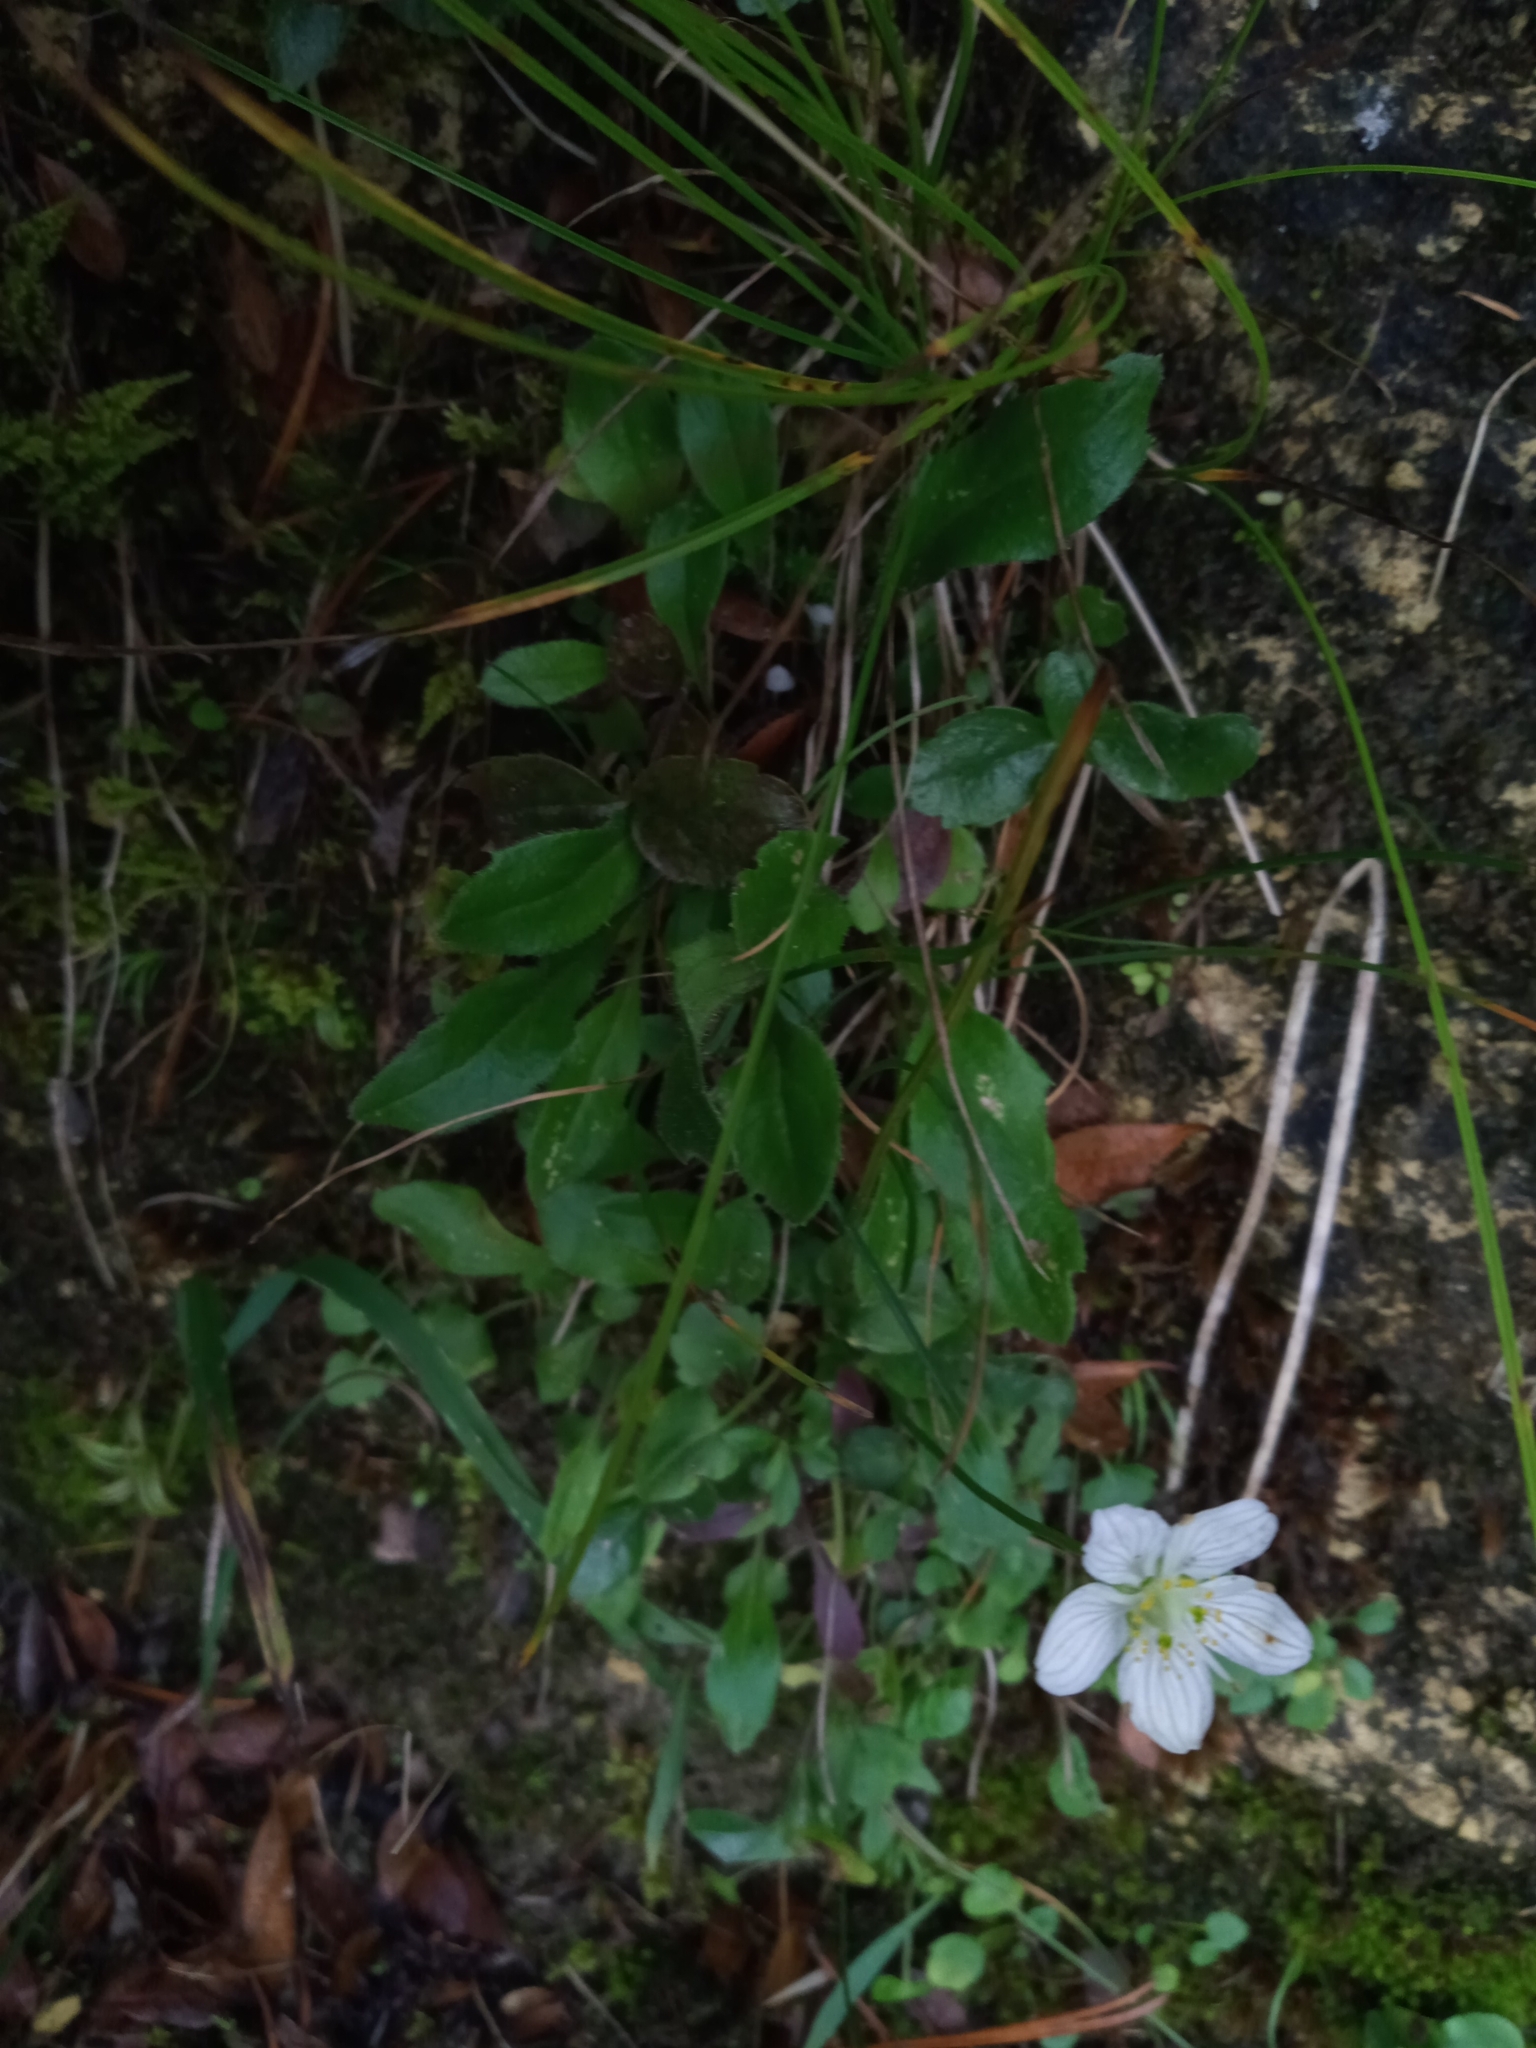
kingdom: Plantae
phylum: Tracheophyta
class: Magnoliopsida
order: Celastrales
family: Parnassiaceae
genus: Parnassia
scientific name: Parnassia palustris
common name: Grass-of-parnassus
